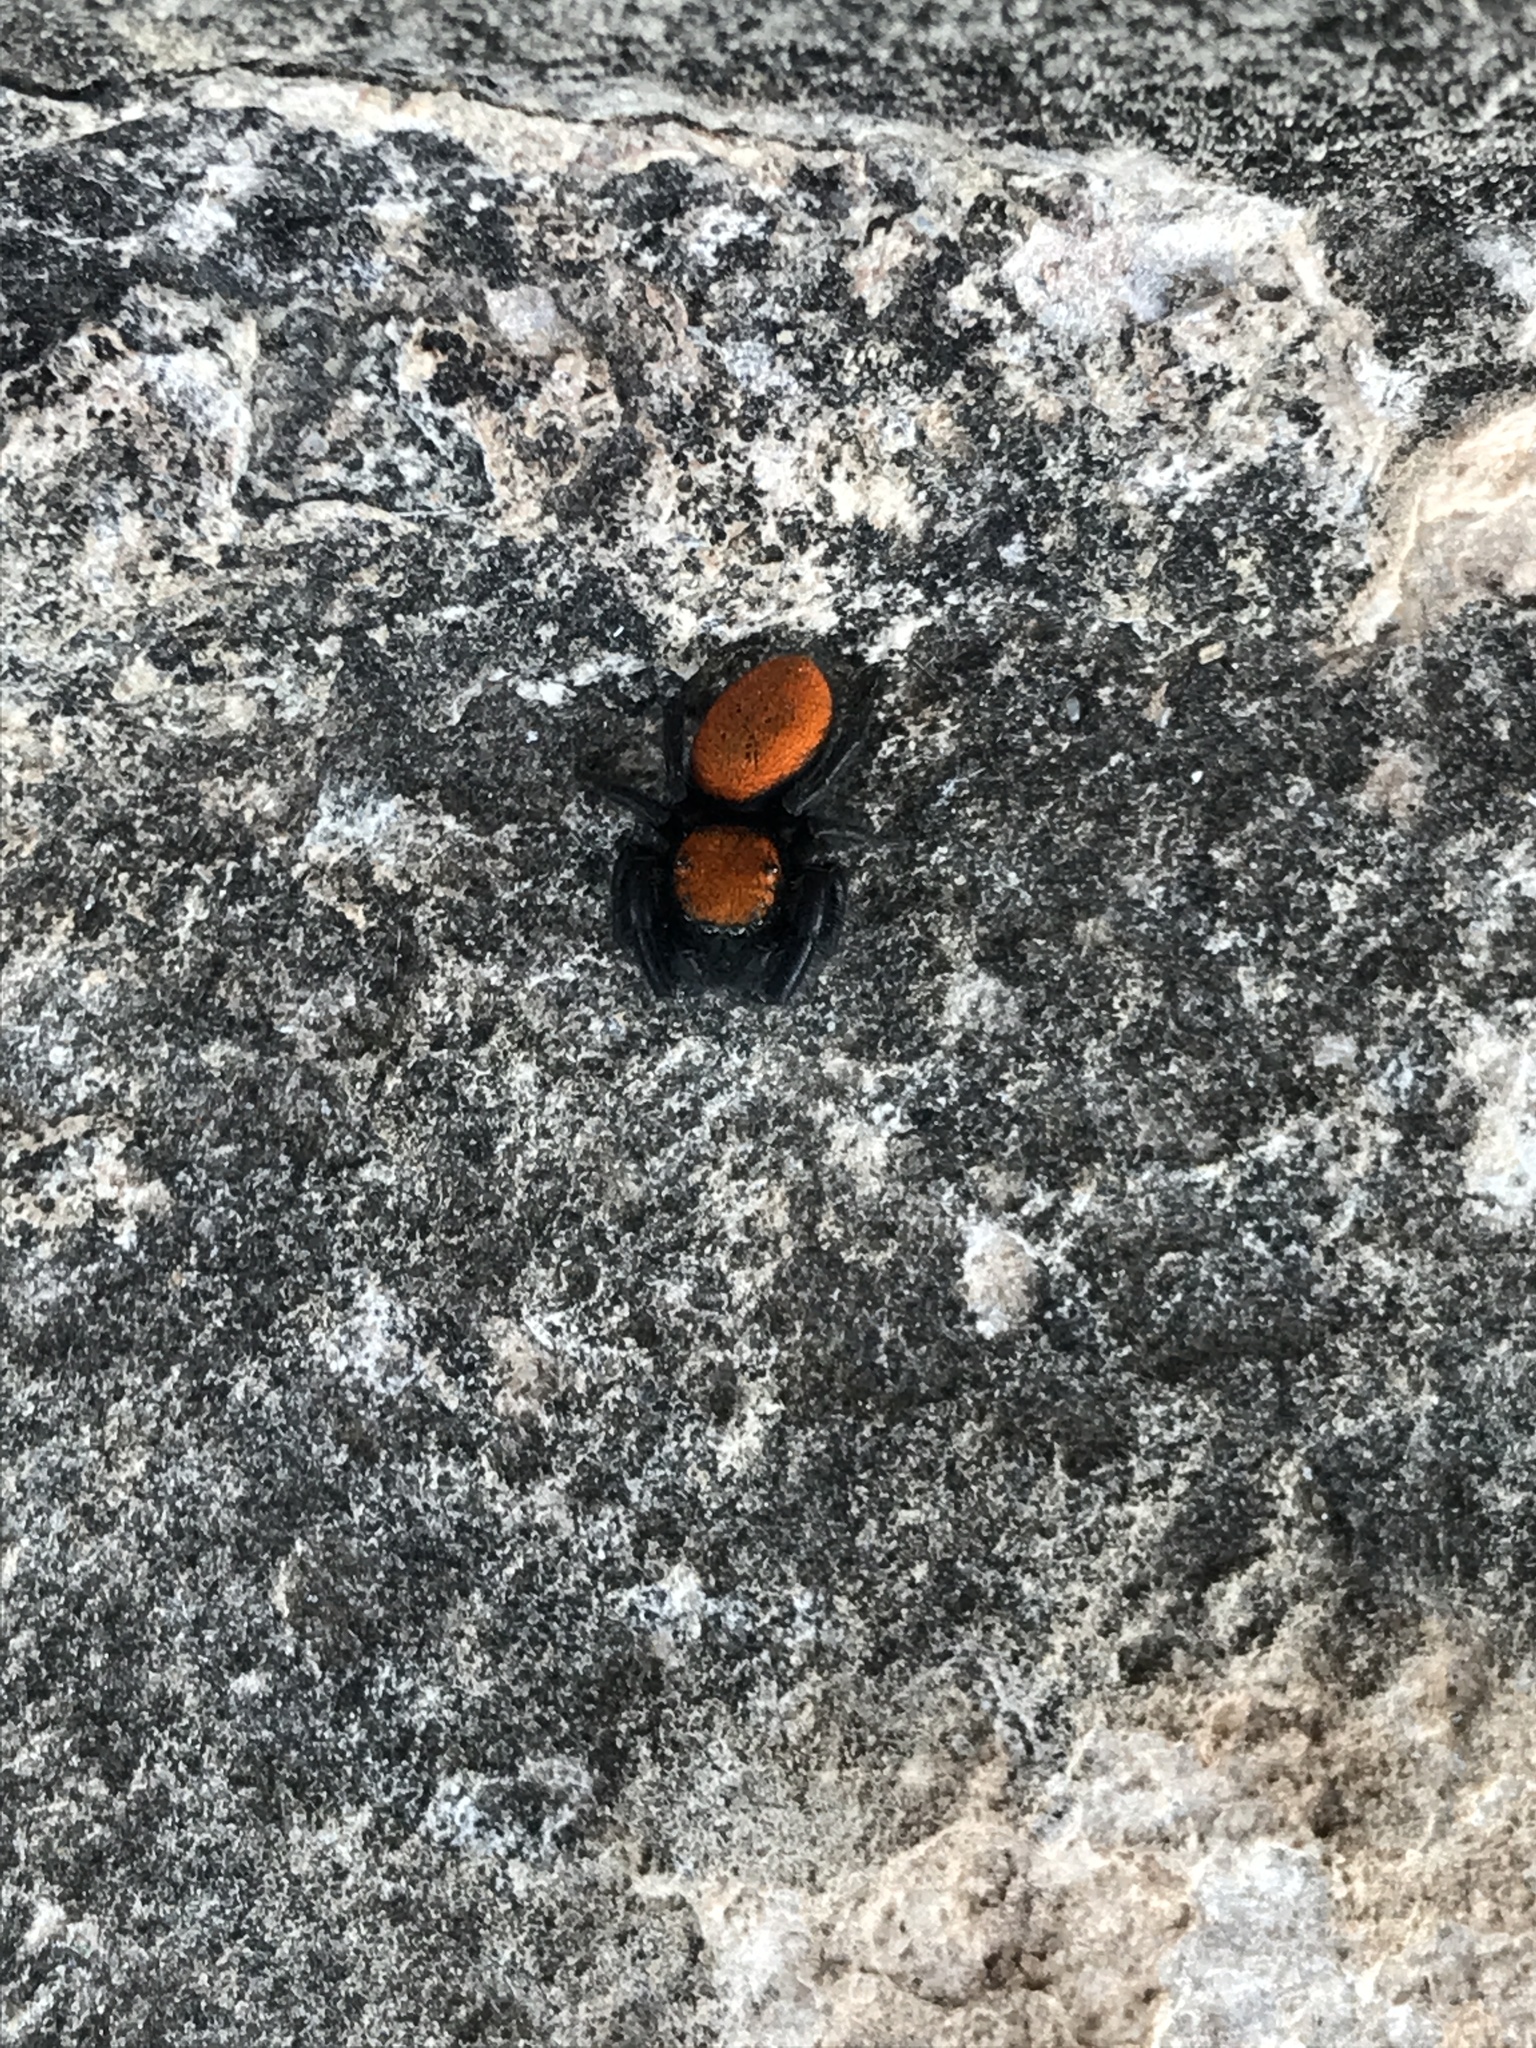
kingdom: Animalia
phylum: Arthropoda
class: Arachnida
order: Araneae
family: Salticidae
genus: Phidippus
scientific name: Phidippus cardinalis
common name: Cardinal jumper
